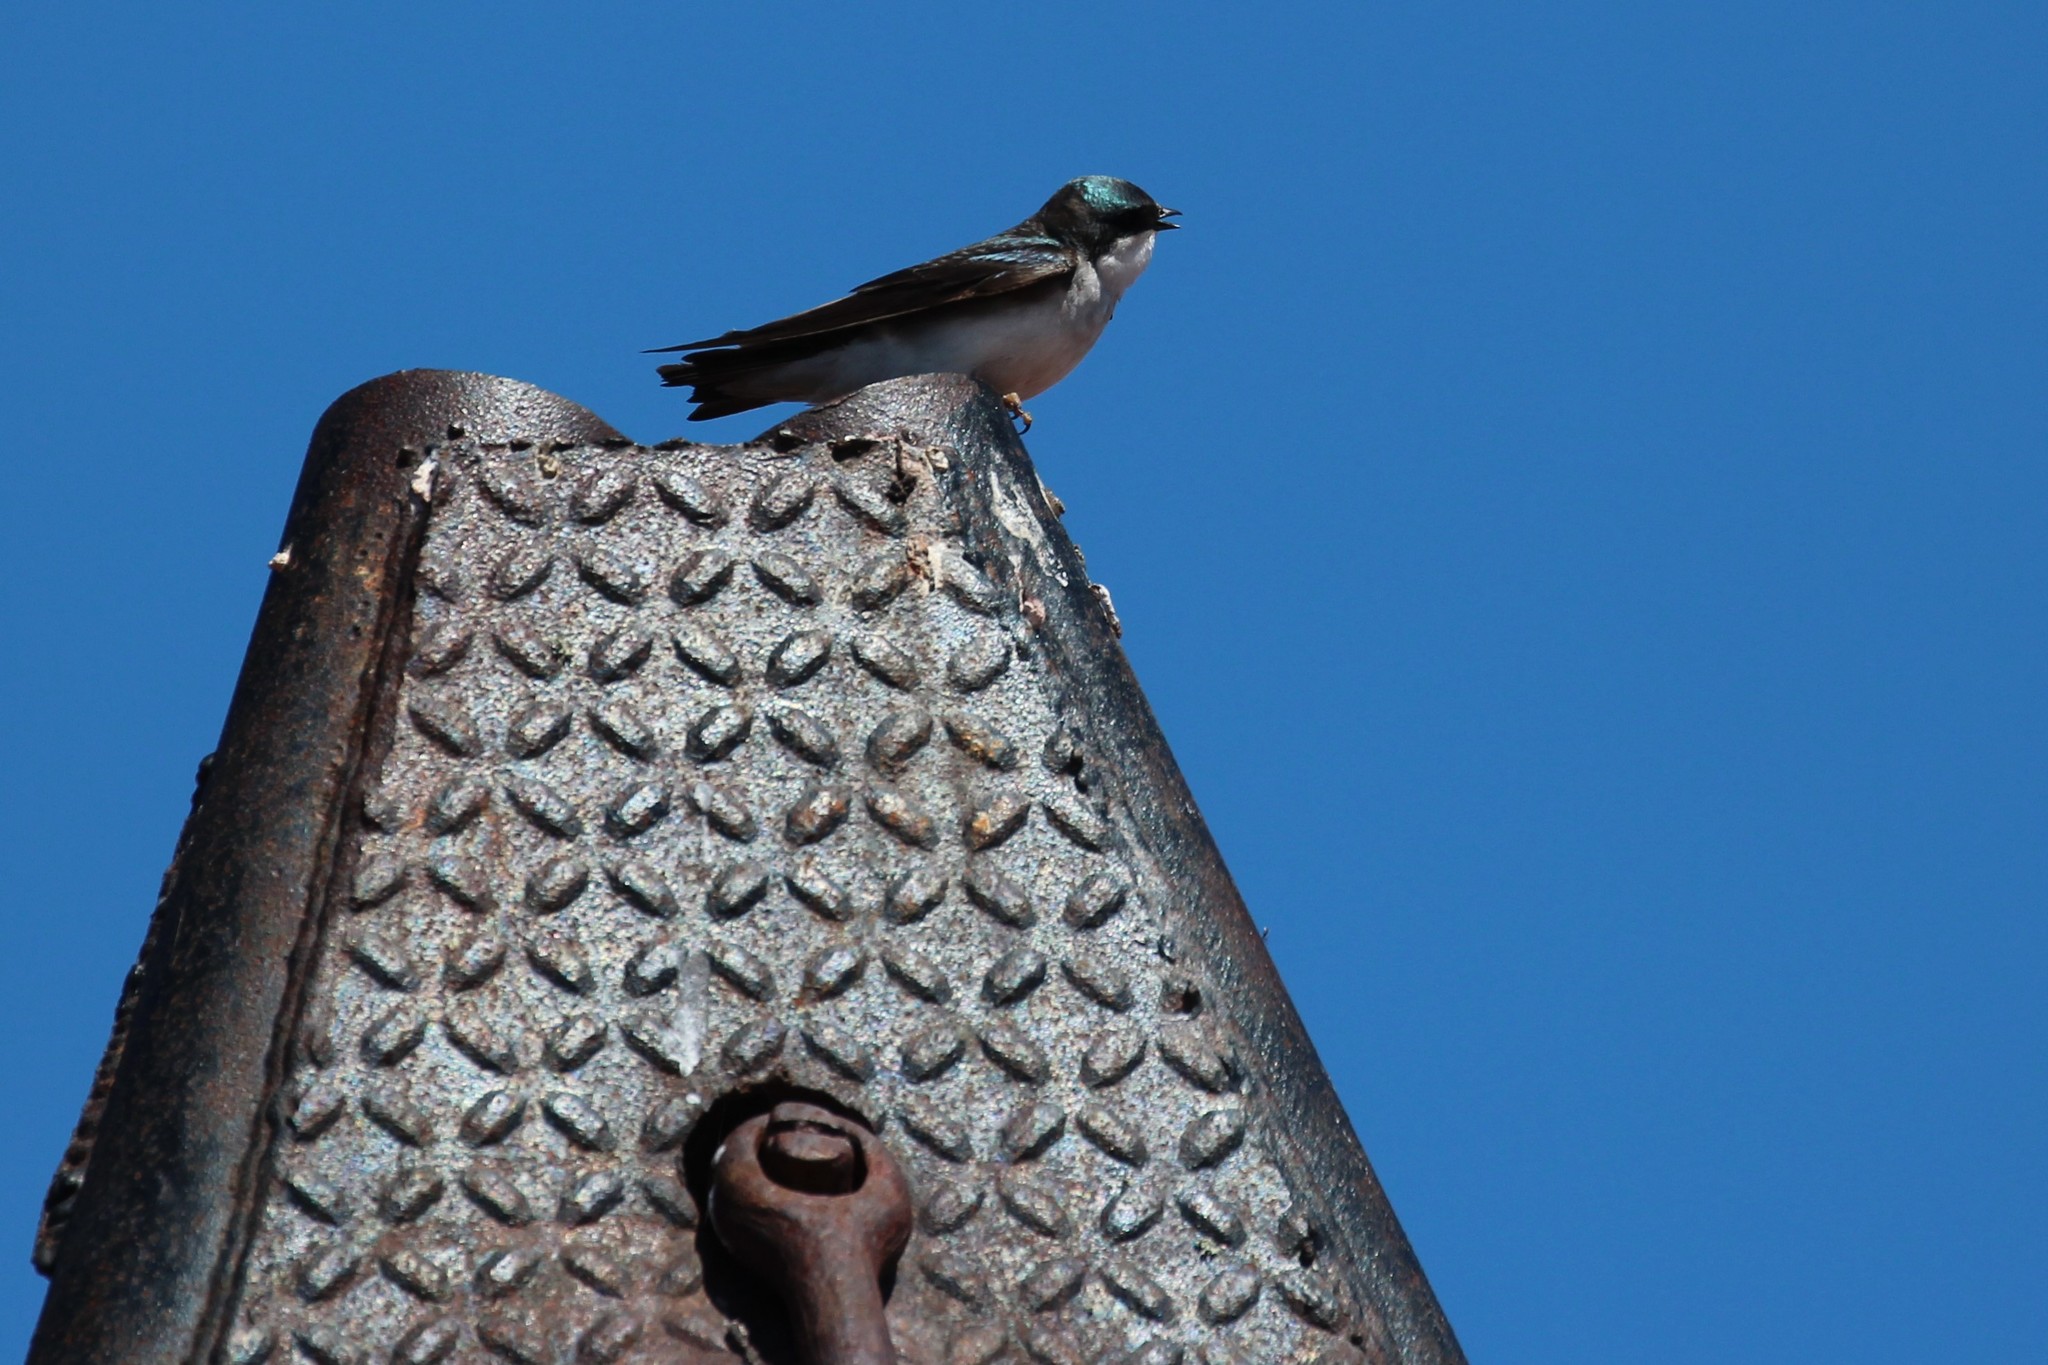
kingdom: Animalia
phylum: Chordata
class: Aves
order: Passeriformes
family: Hirundinidae
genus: Tachycineta
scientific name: Tachycineta bicolor
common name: Tree swallow
